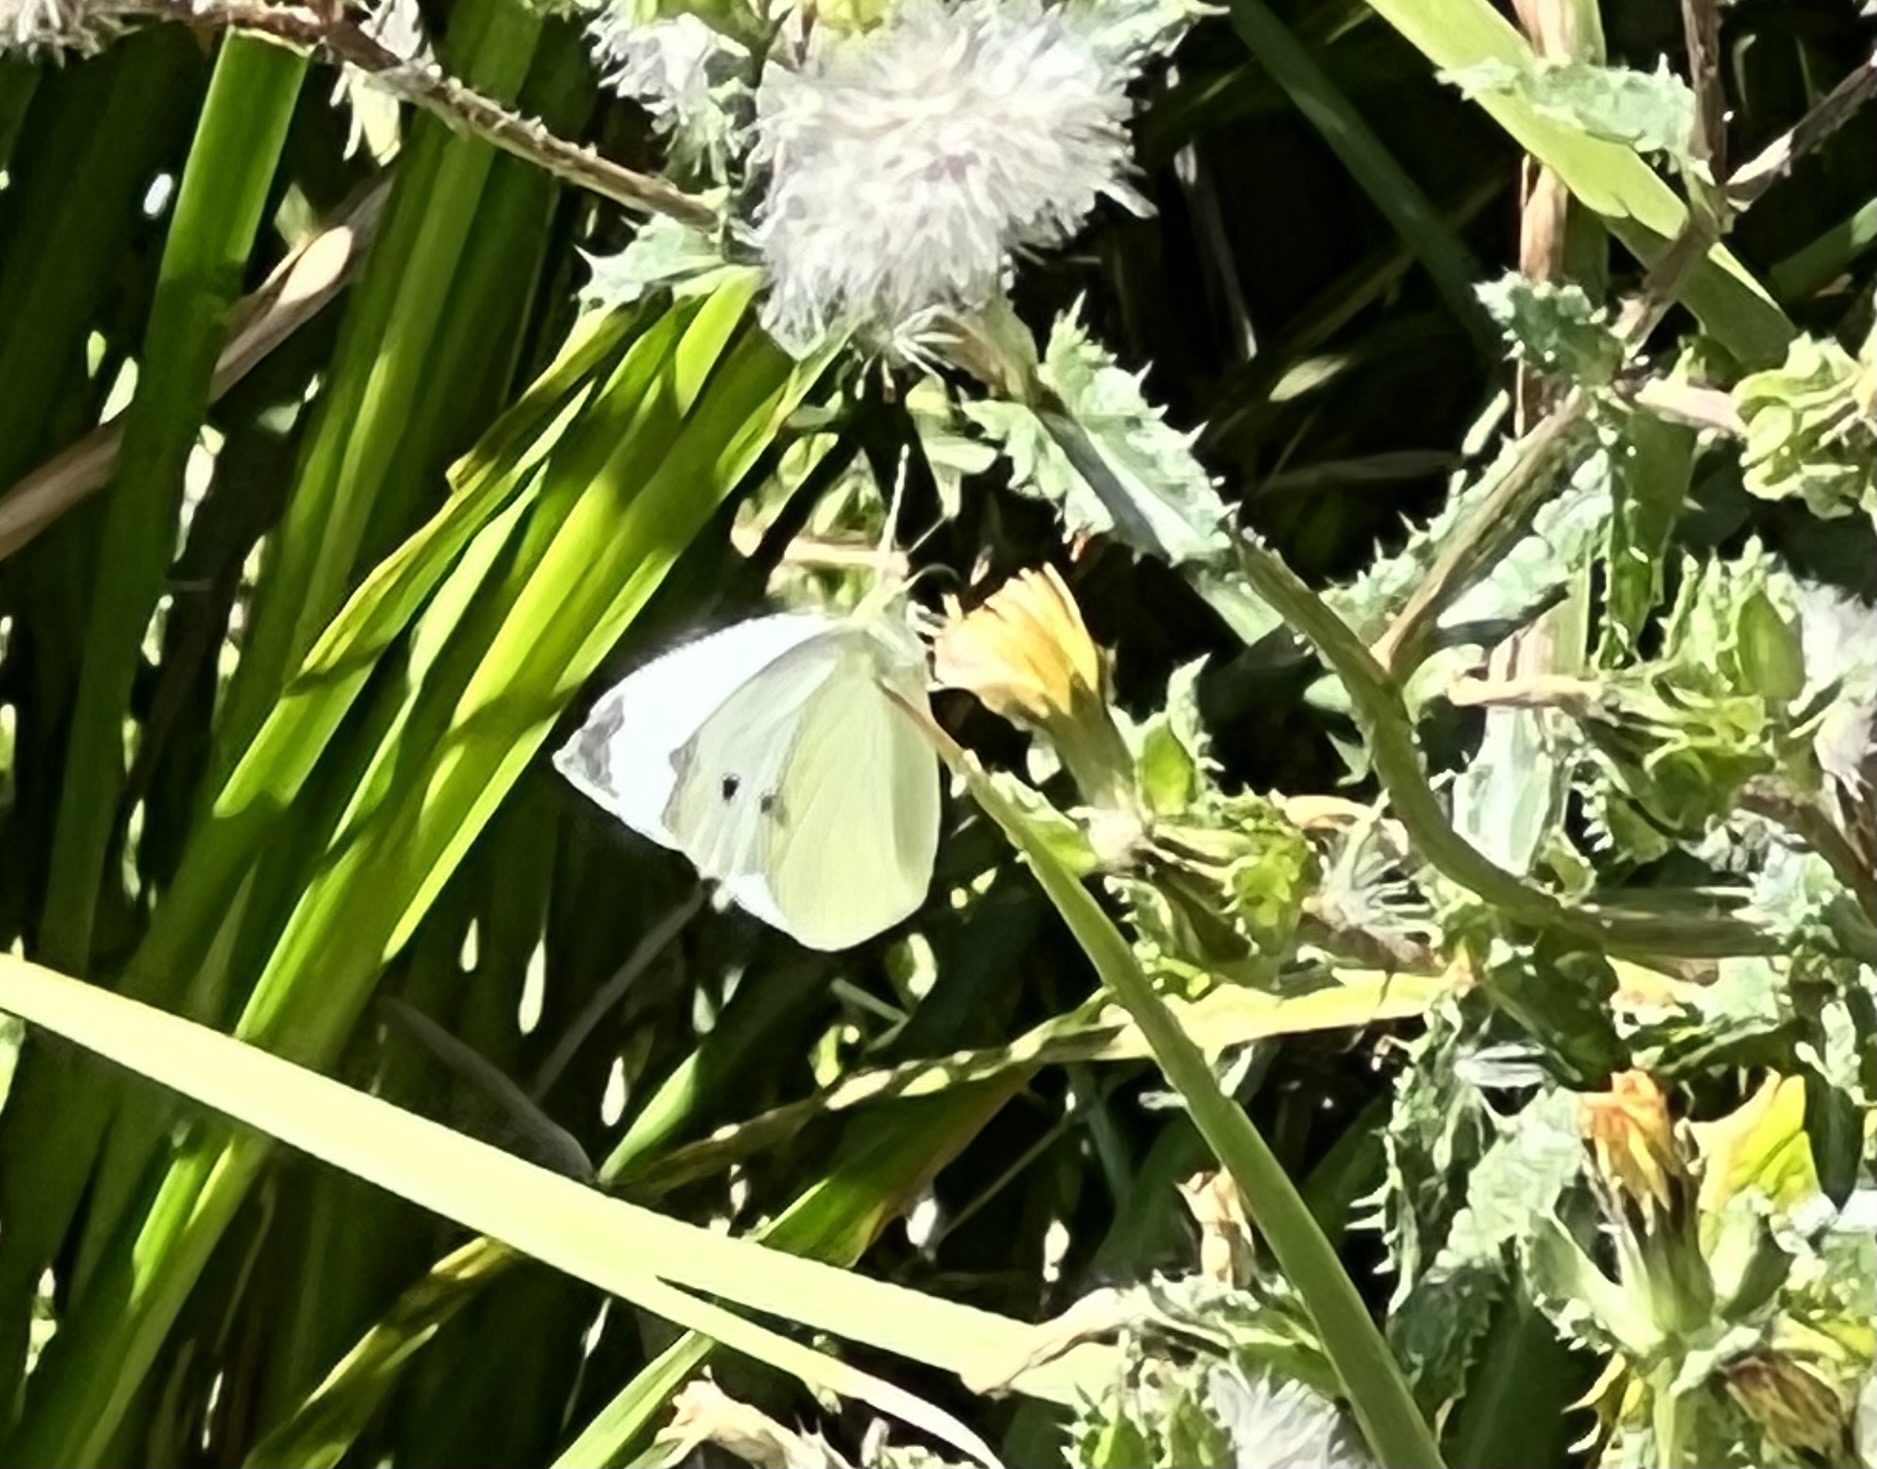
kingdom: Animalia
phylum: Arthropoda
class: Insecta
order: Lepidoptera
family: Pieridae
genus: Pieris
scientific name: Pieris rapae
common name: Small white
